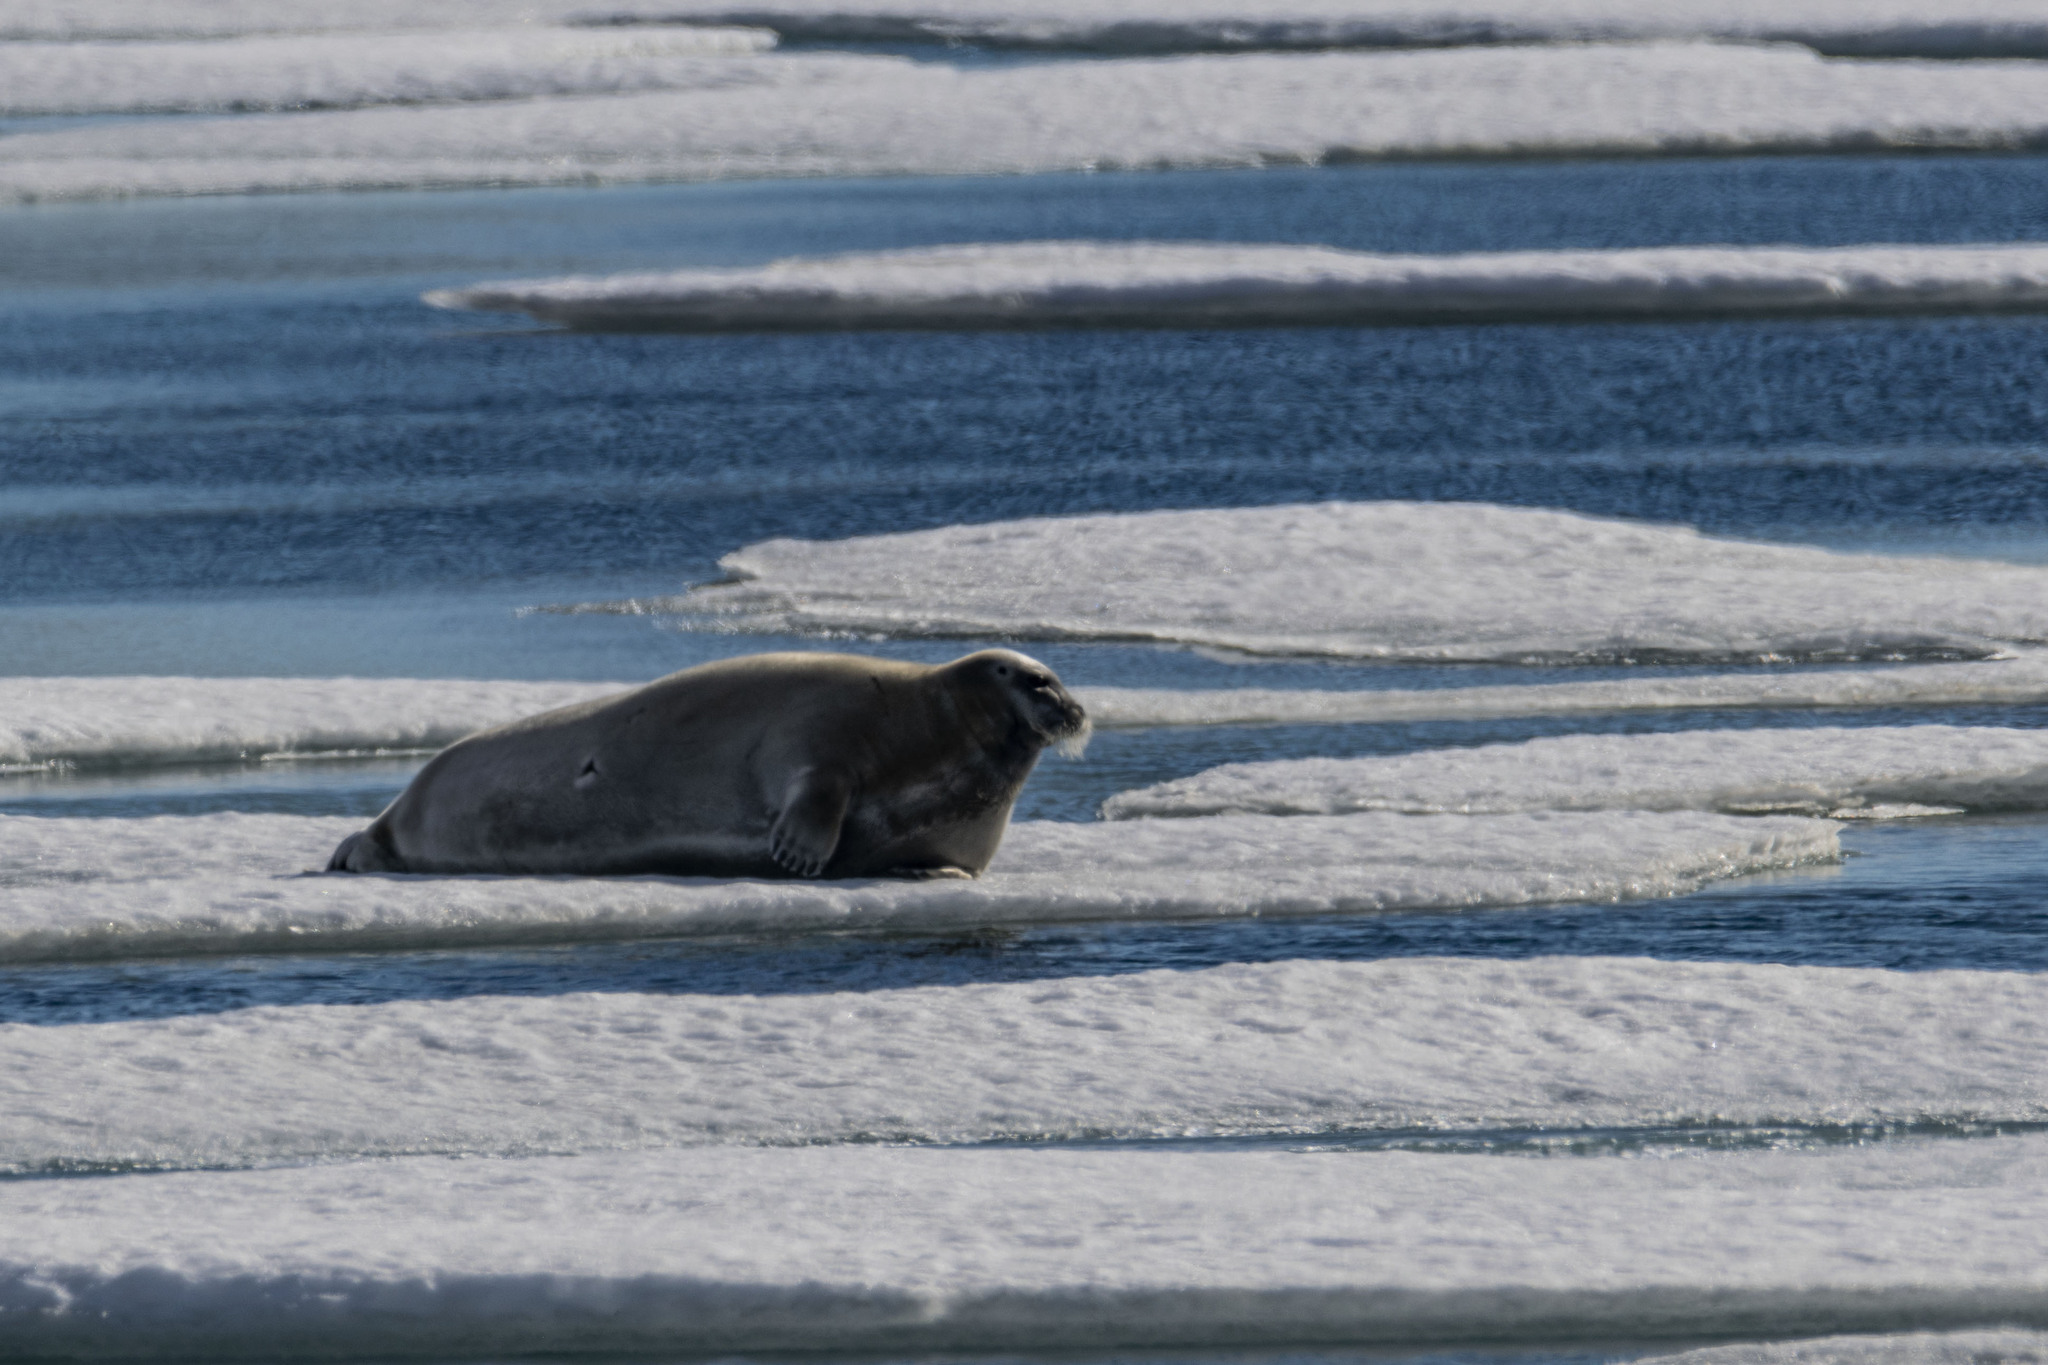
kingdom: Animalia
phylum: Chordata
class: Mammalia
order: Carnivora
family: Phocidae
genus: Erignathus
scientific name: Erignathus barbatus
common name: Bearded seal
